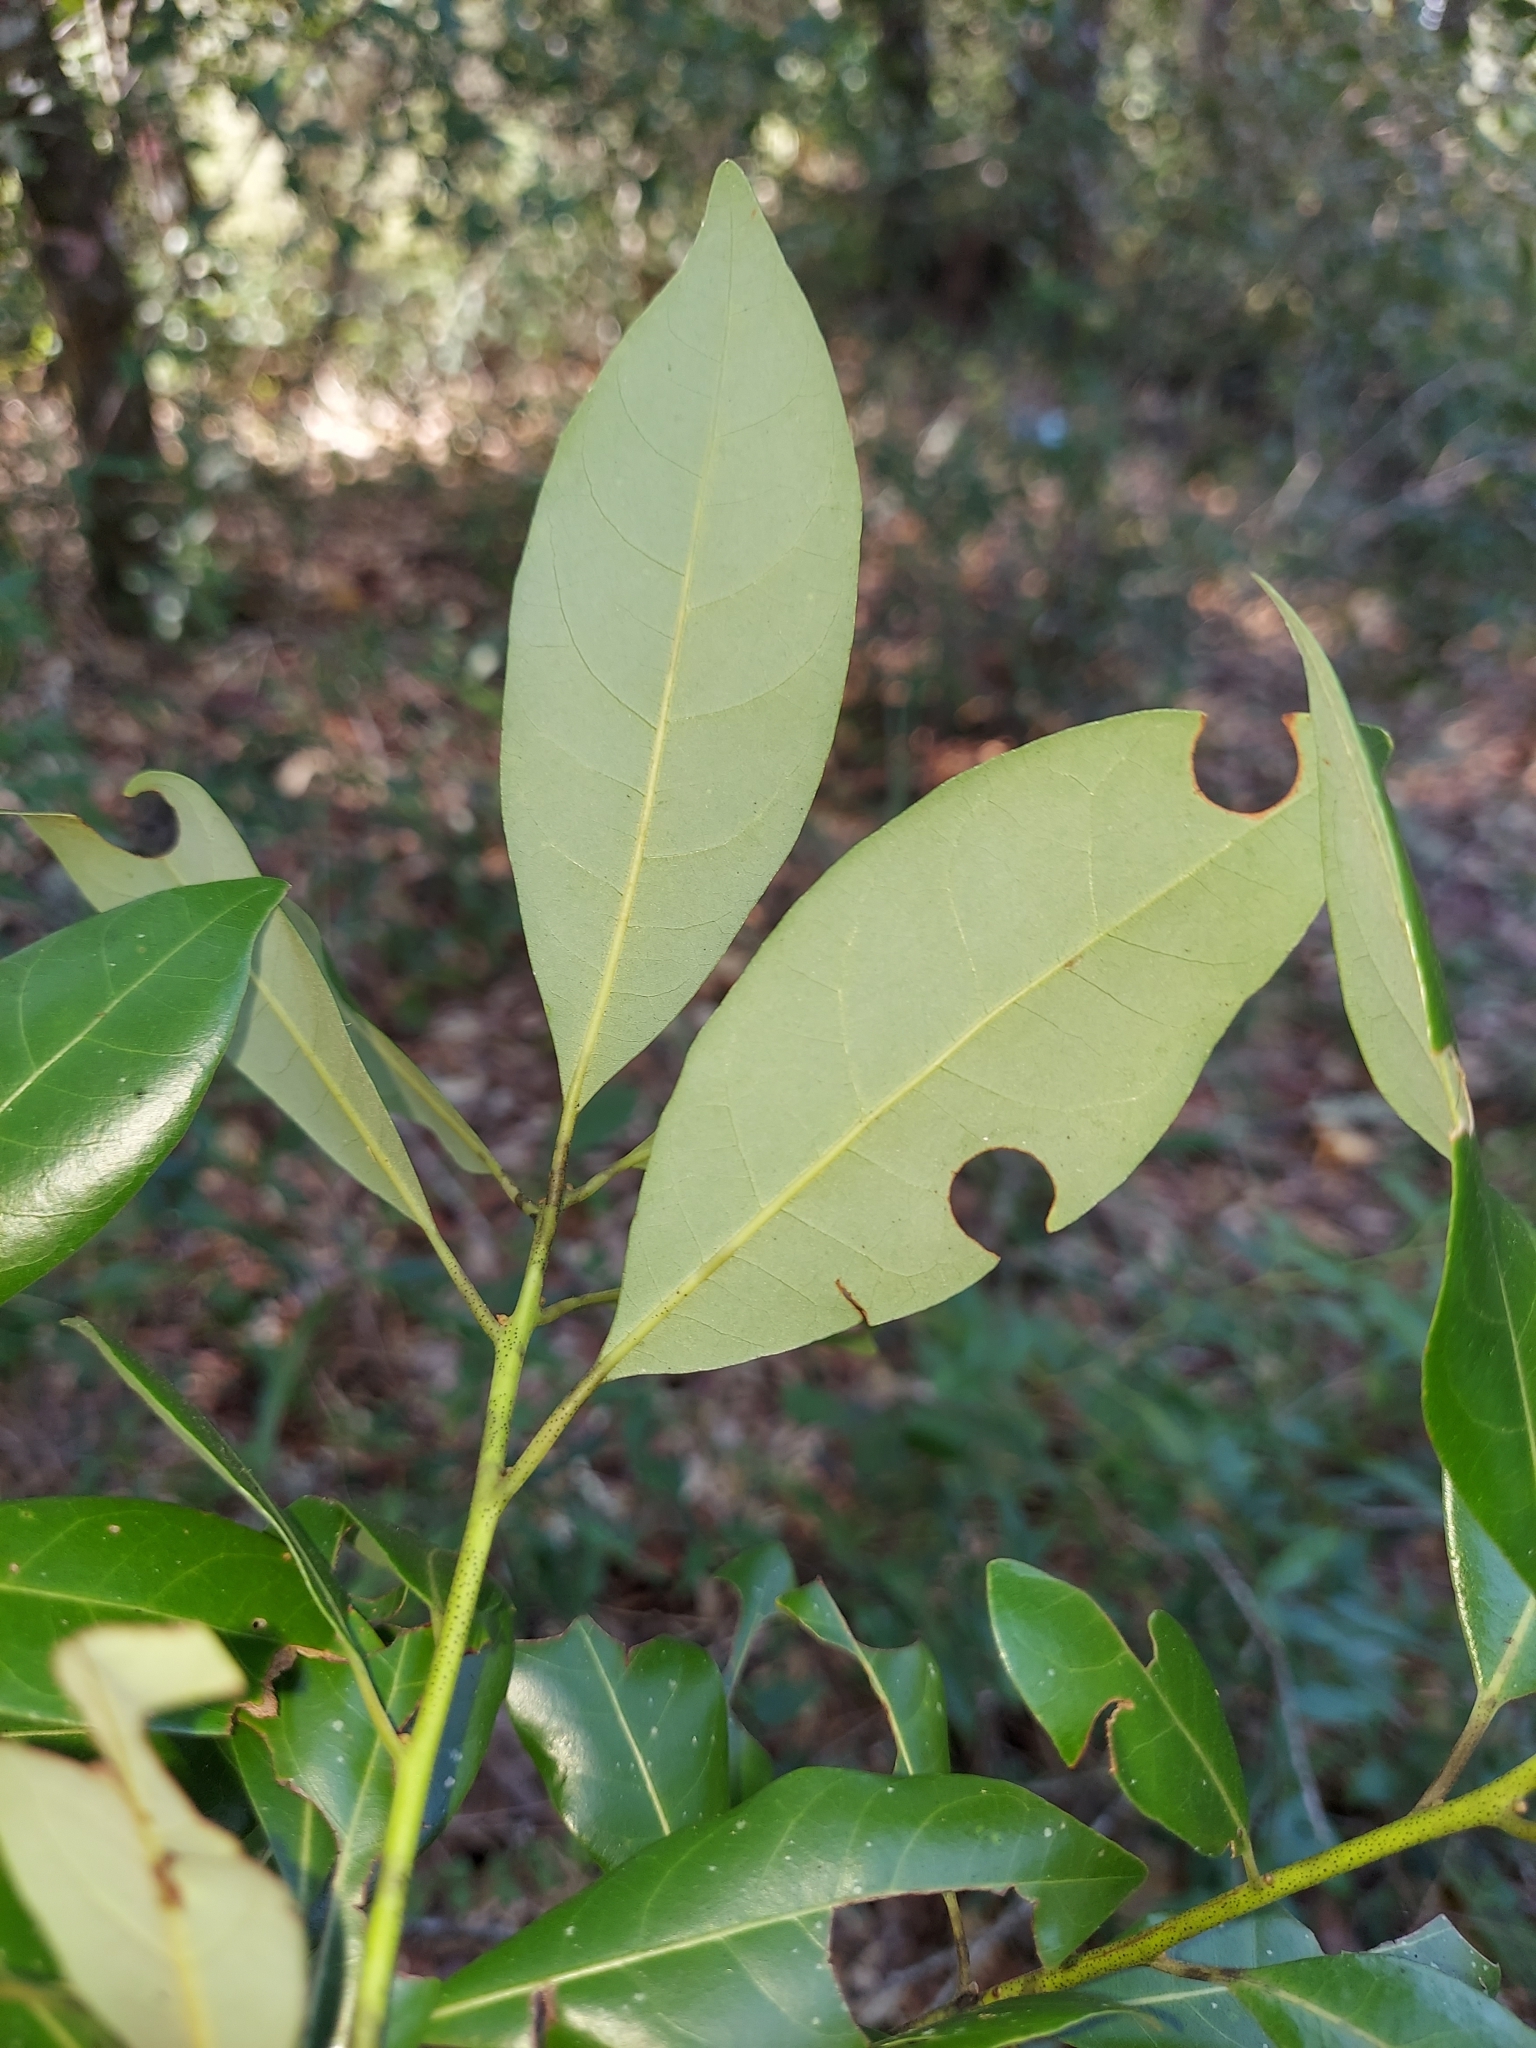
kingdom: Plantae
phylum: Tracheophyta
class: Magnoliopsida
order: Laurales
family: Lauraceae
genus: Persea
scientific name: Persea borbonia
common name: Redbay
